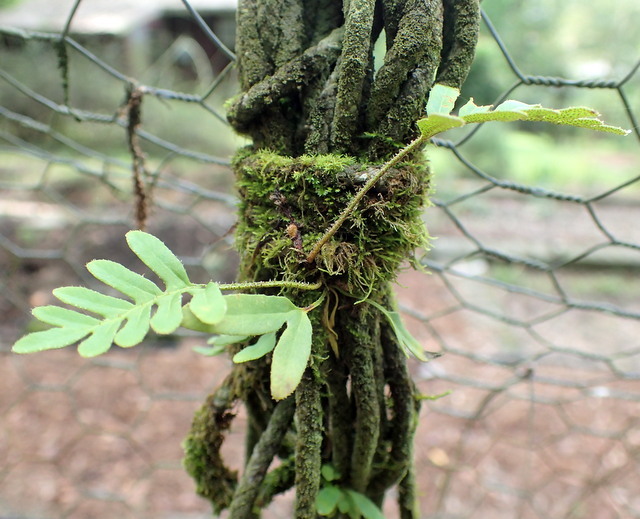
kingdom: Plantae
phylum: Tracheophyta
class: Polypodiopsida
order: Polypodiales
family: Polypodiaceae
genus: Pleopeltis
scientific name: Pleopeltis michauxiana
